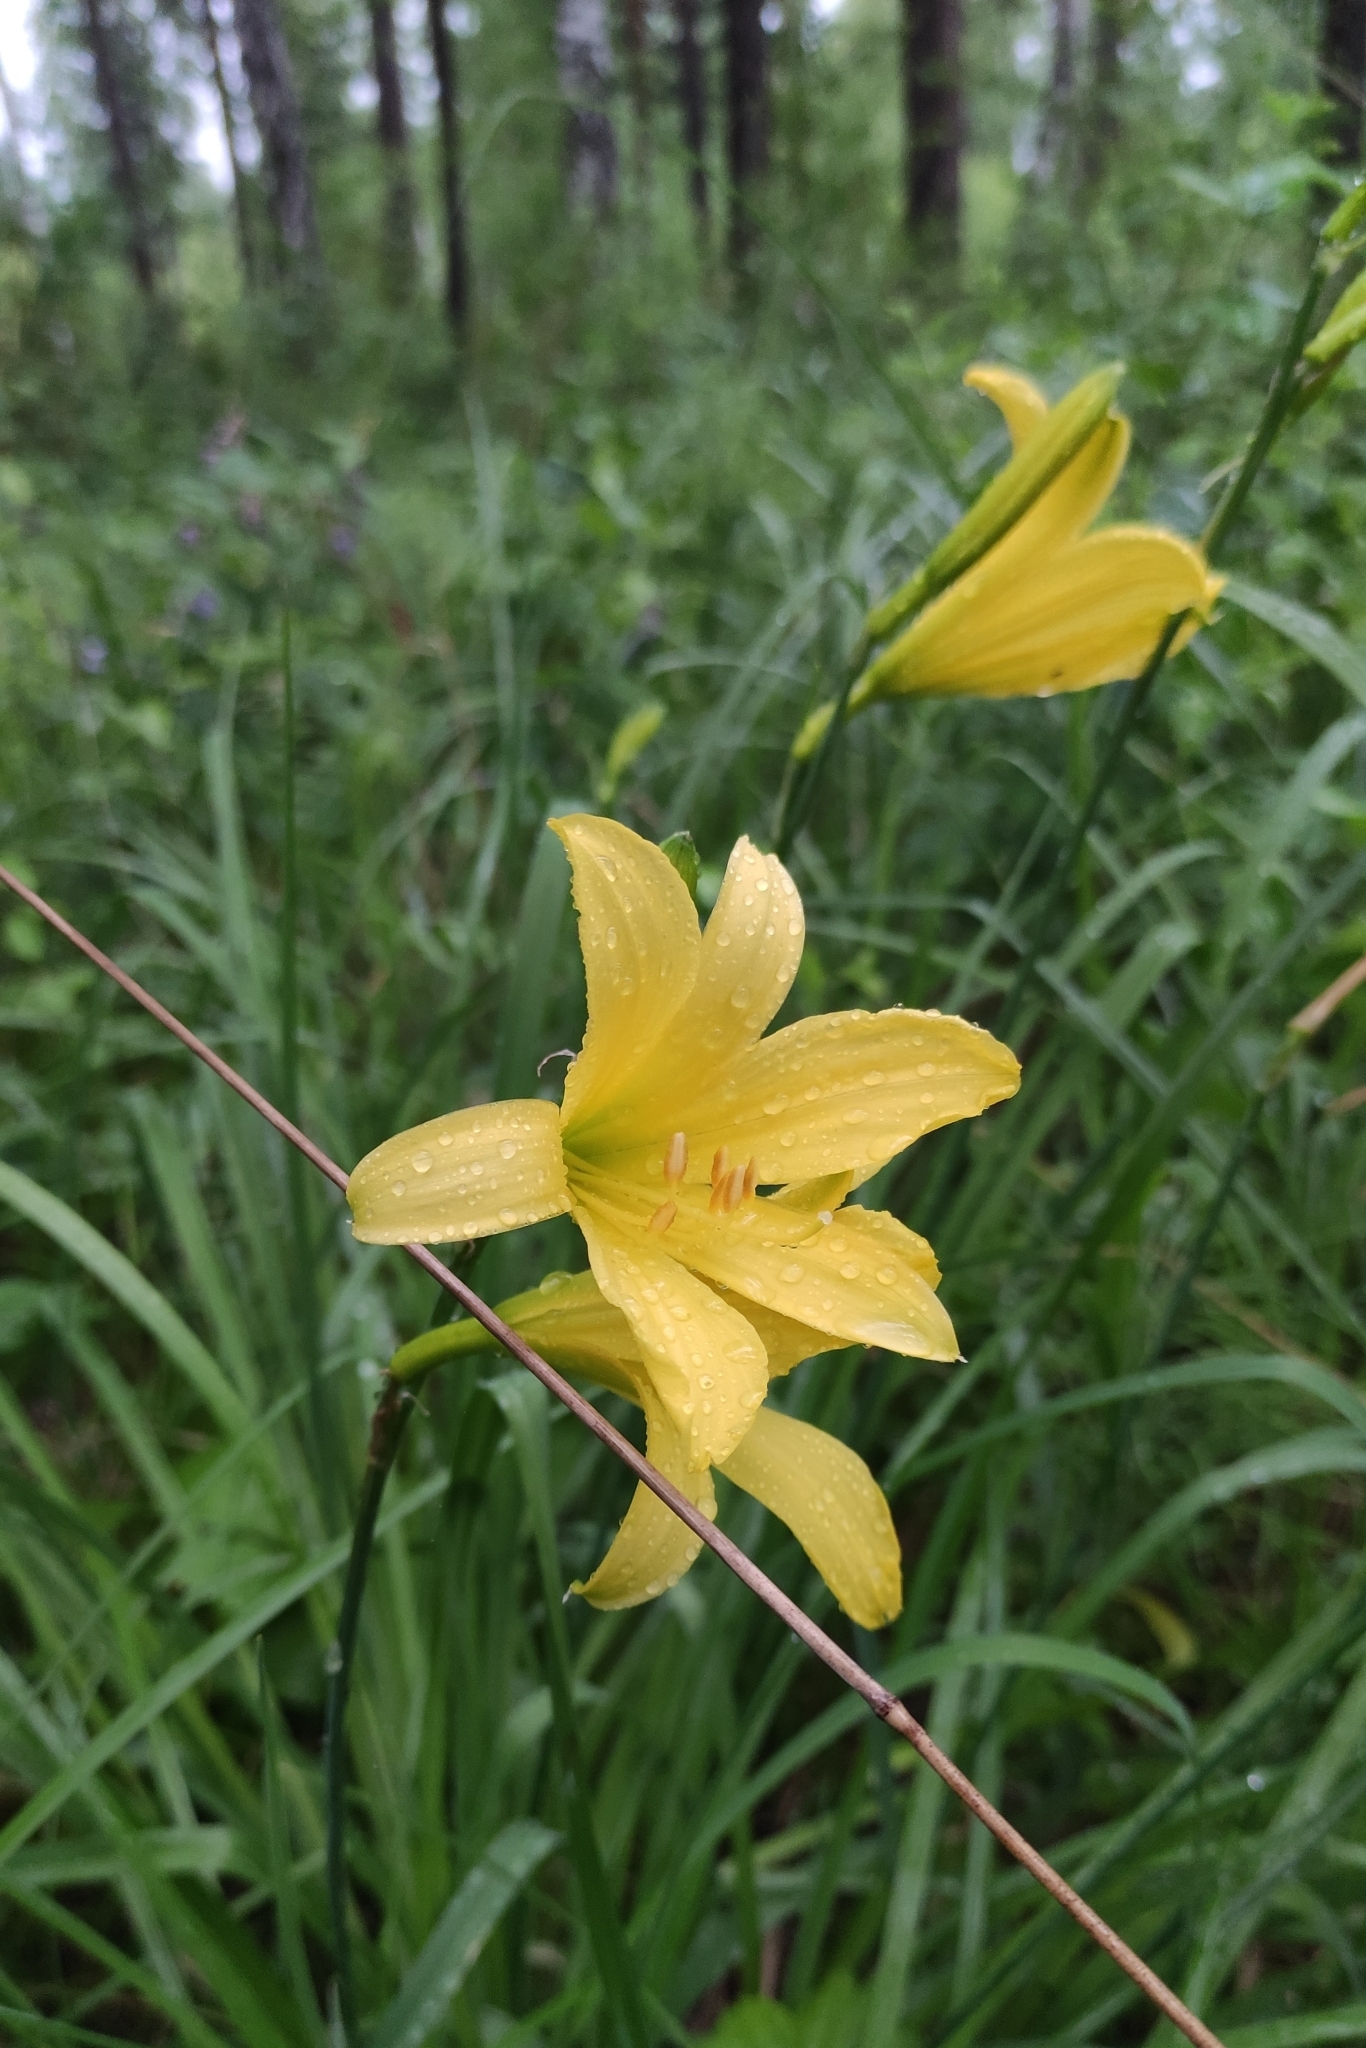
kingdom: Plantae
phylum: Tracheophyta
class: Liliopsida
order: Asparagales
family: Asphodelaceae
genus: Hemerocallis
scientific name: Hemerocallis minor
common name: Small daylily
